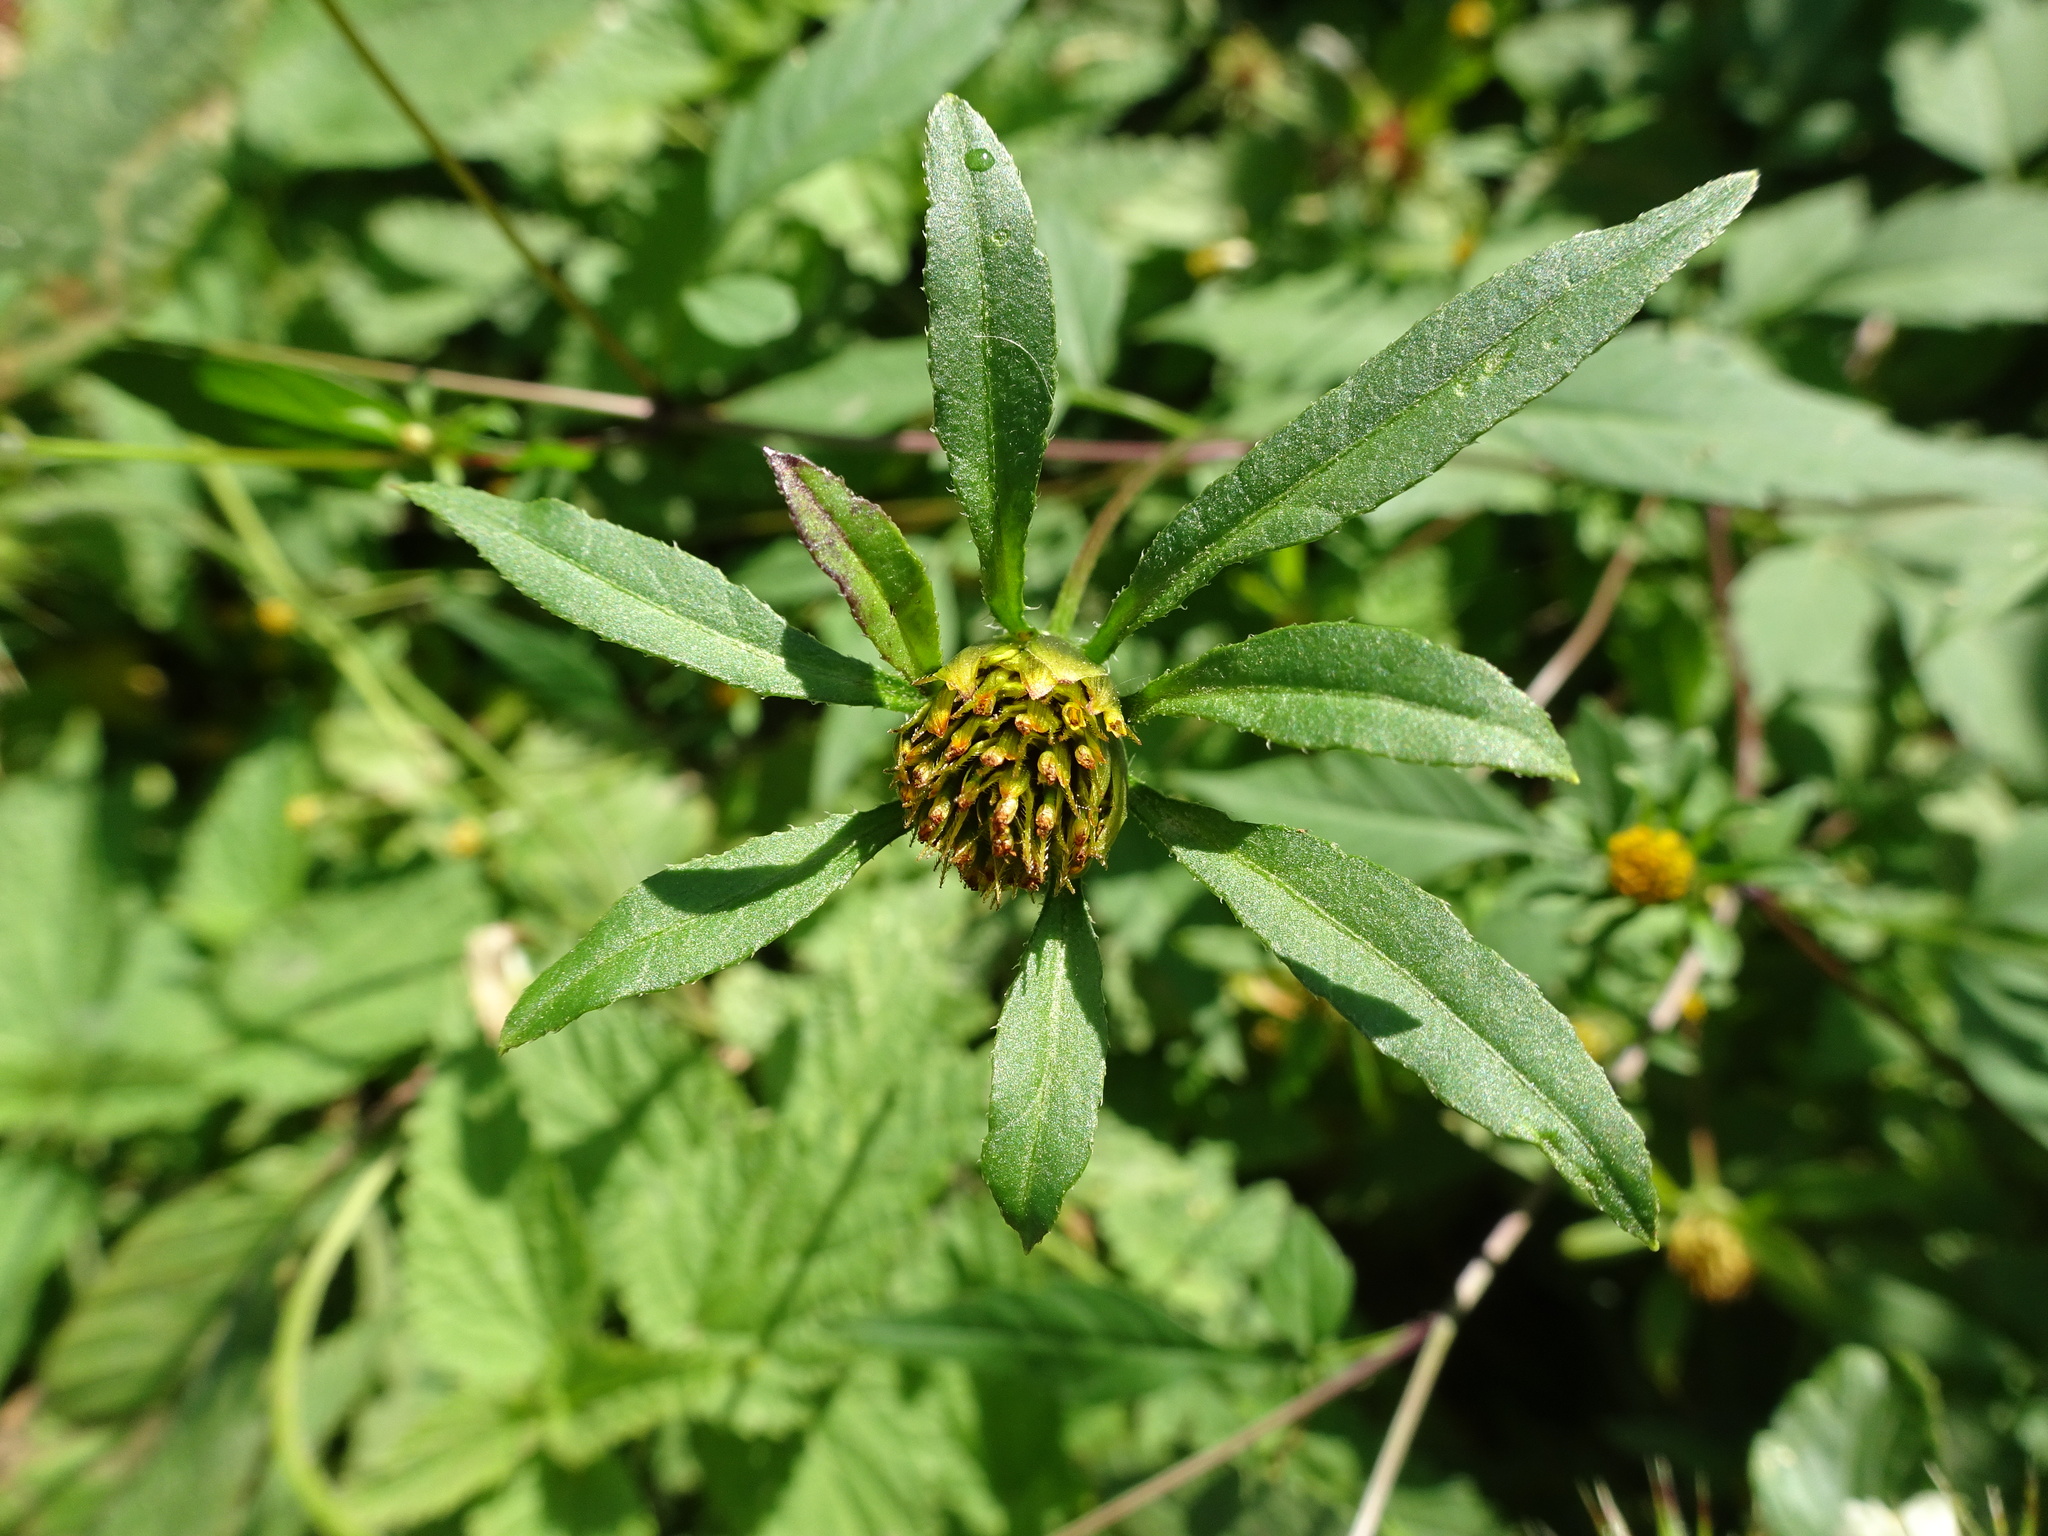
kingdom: Plantae
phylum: Tracheophyta
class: Magnoliopsida
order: Asterales
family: Asteraceae
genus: Bidens
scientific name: Bidens frondosa
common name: Beggarticks
